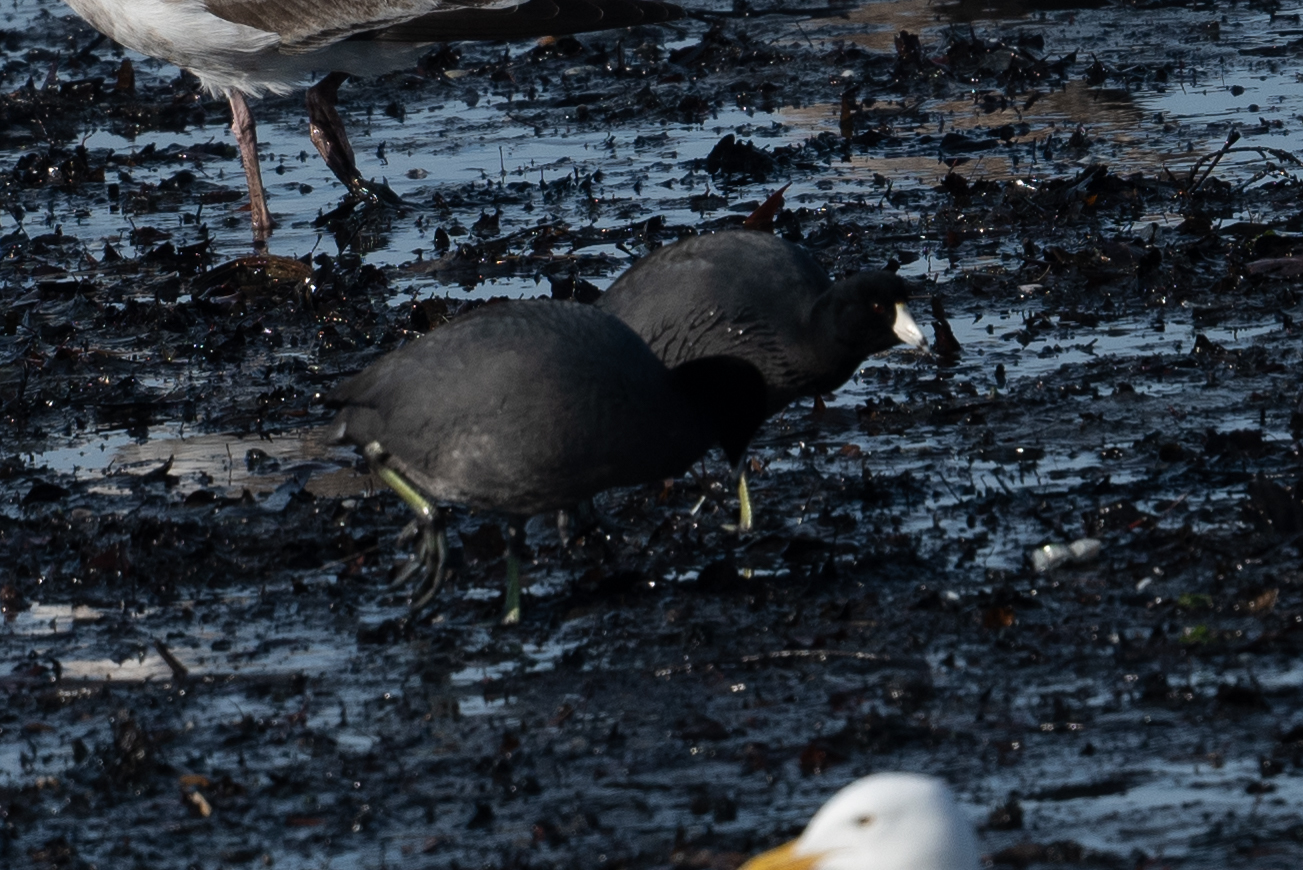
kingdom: Animalia
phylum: Chordata
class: Aves
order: Gruiformes
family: Rallidae
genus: Fulica
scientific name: Fulica americana
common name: American coot
